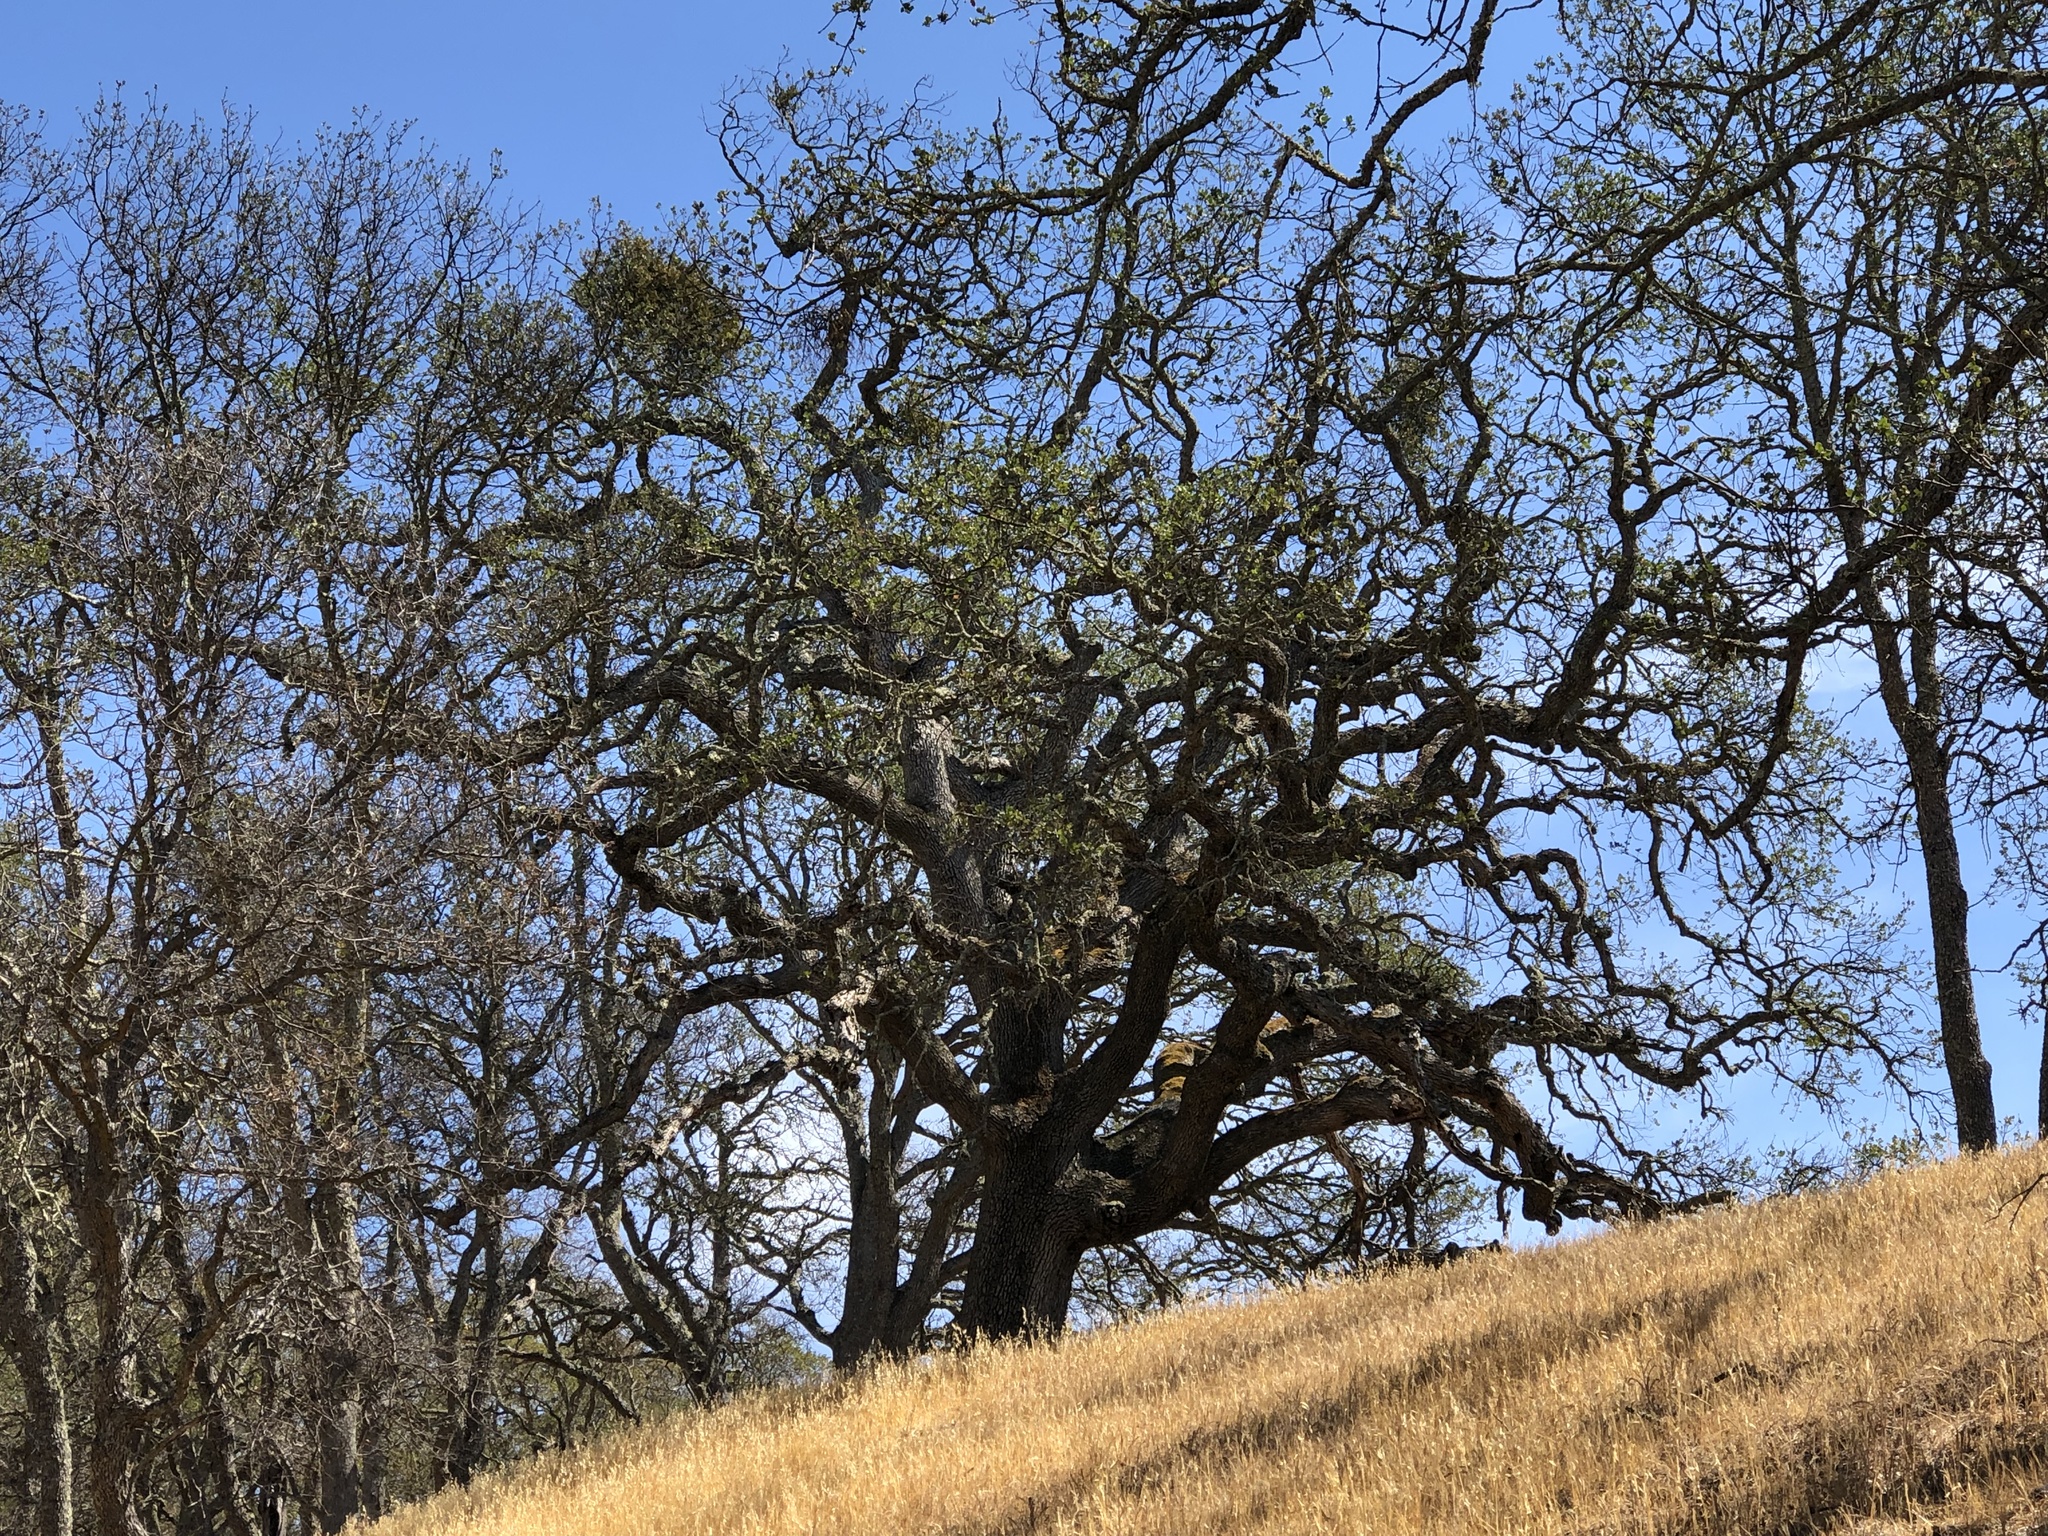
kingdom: Plantae
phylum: Tracheophyta
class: Magnoliopsida
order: Santalales
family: Viscaceae
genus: Phoradendron
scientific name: Phoradendron leucarpum
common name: Pacific mistletoe
